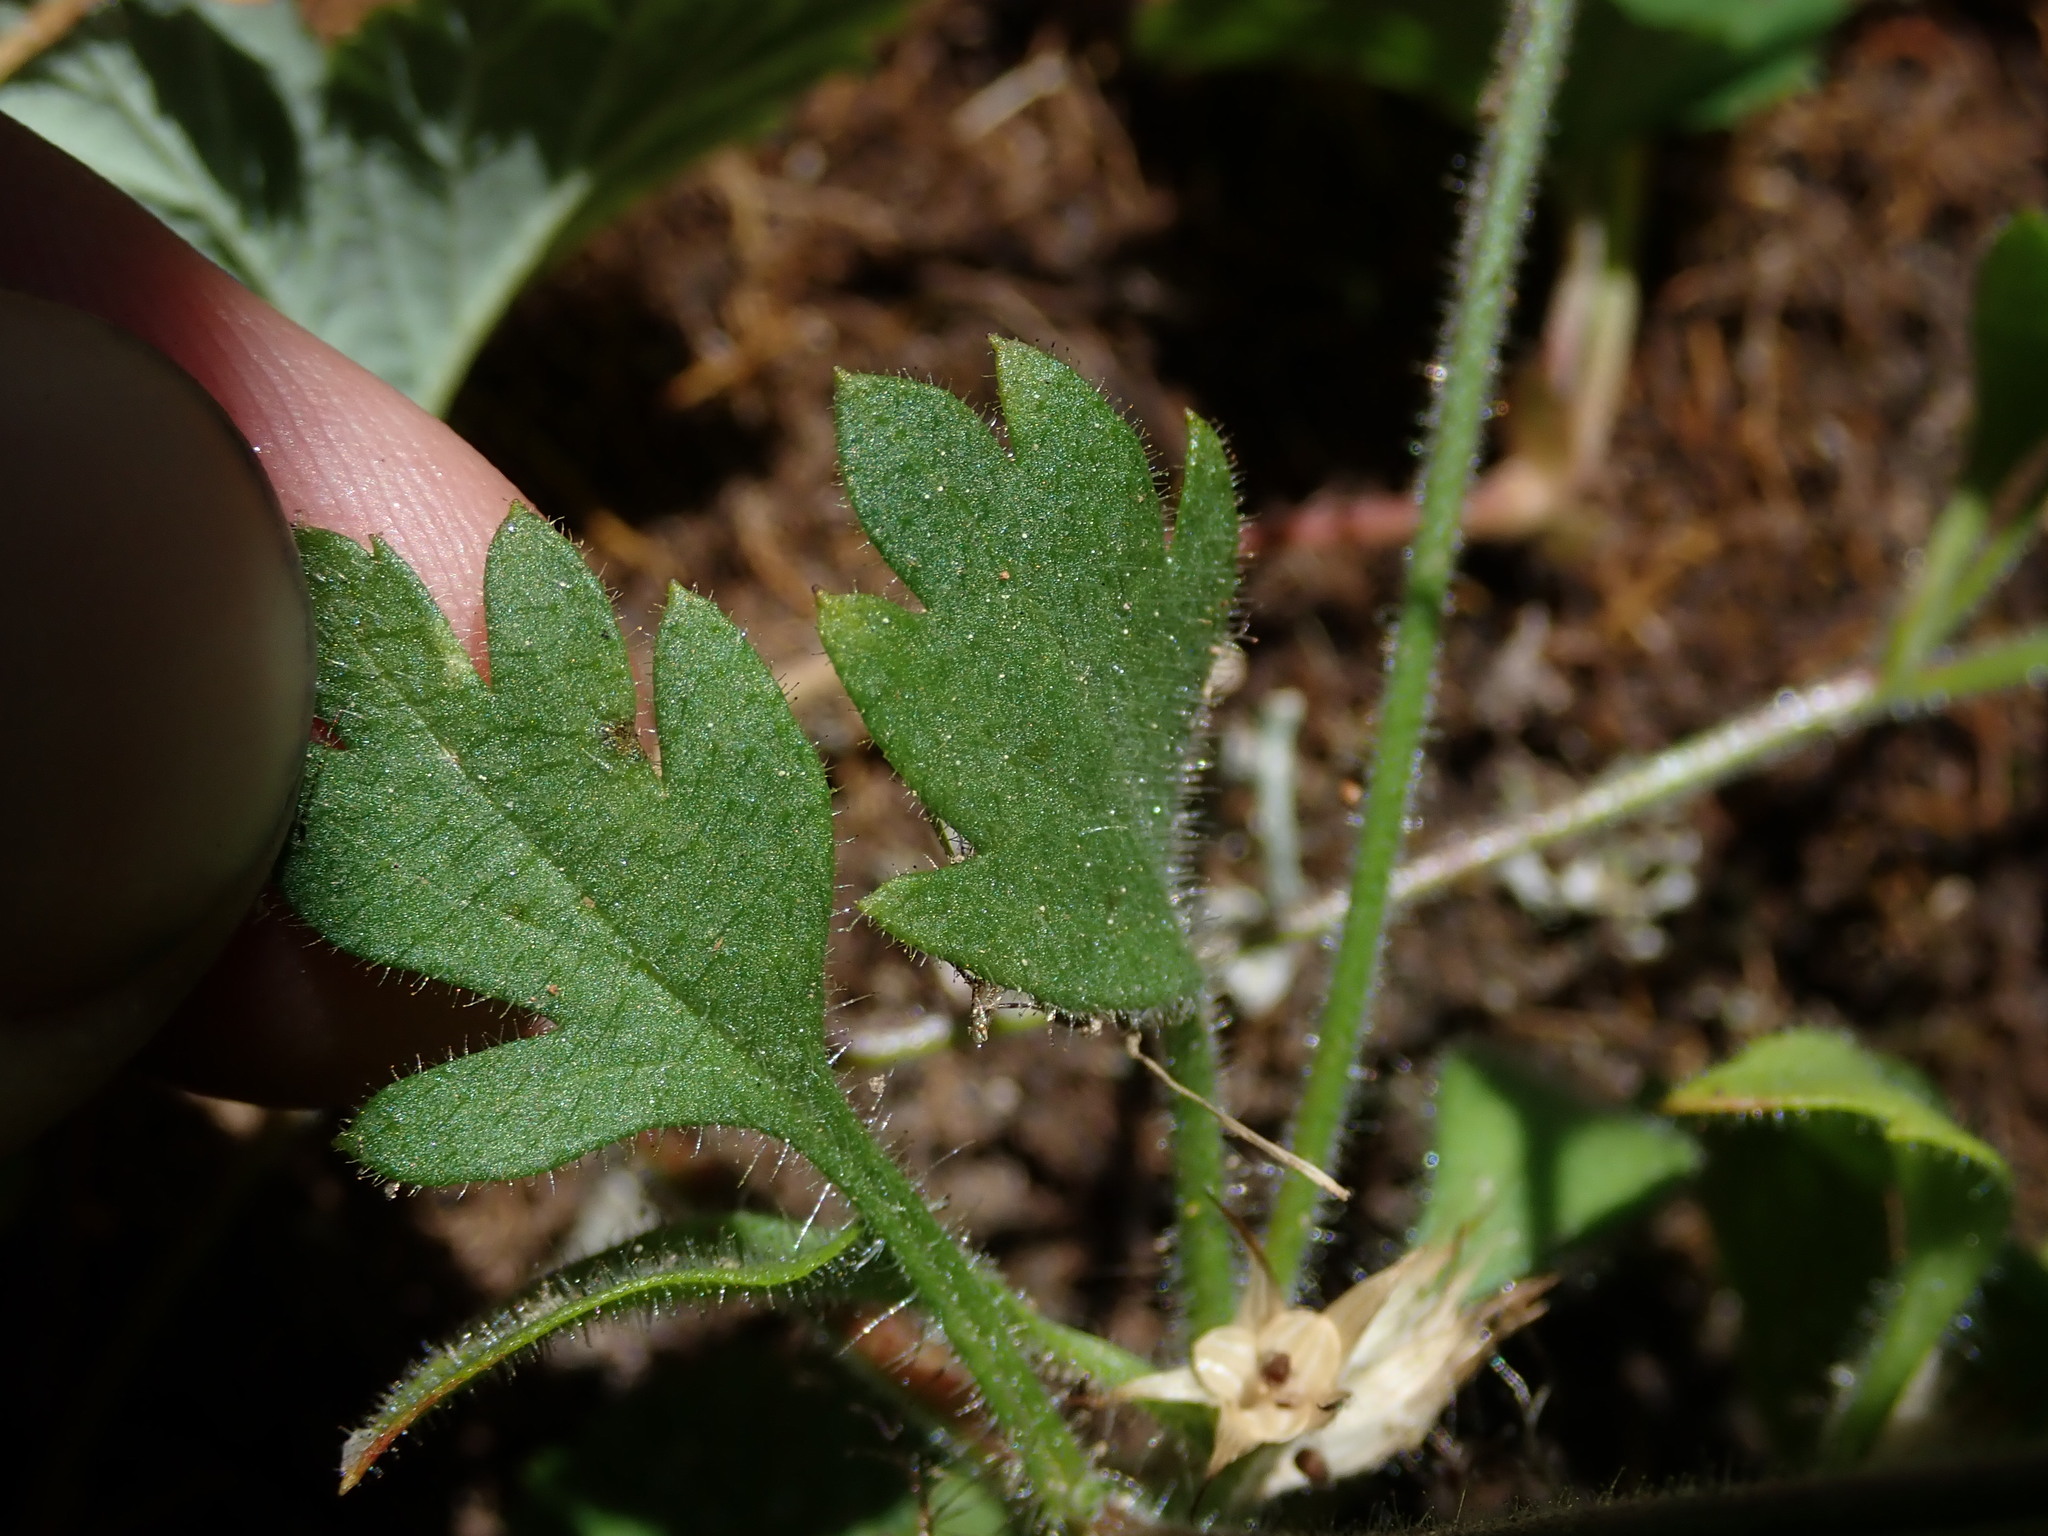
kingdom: Plantae
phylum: Tracheophyta
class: Magnoliopsida
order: Ericales
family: Polemoniaceae
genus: Collomia
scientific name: Collomia heterophylla
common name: Variable-leaved collomia
